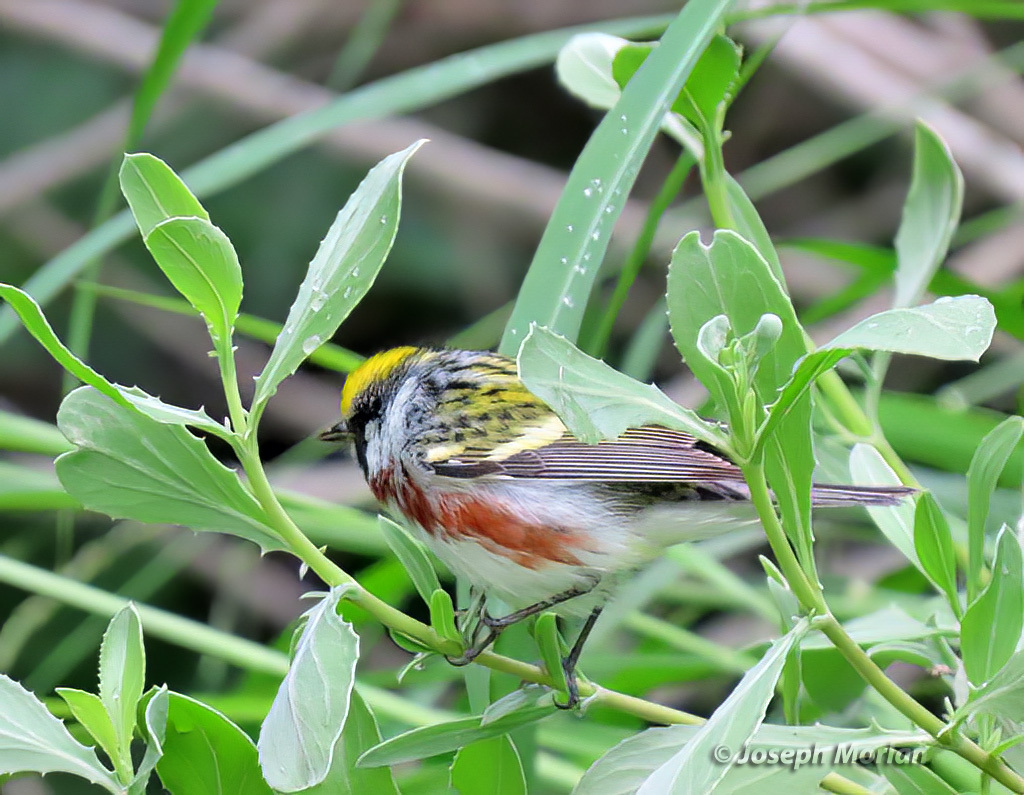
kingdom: Animalia
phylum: Chordata
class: Aves
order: Passeriformes
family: Parulidae
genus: Setophaga
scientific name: Setophaga pensylvanica
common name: Chestnut-sided warbler
